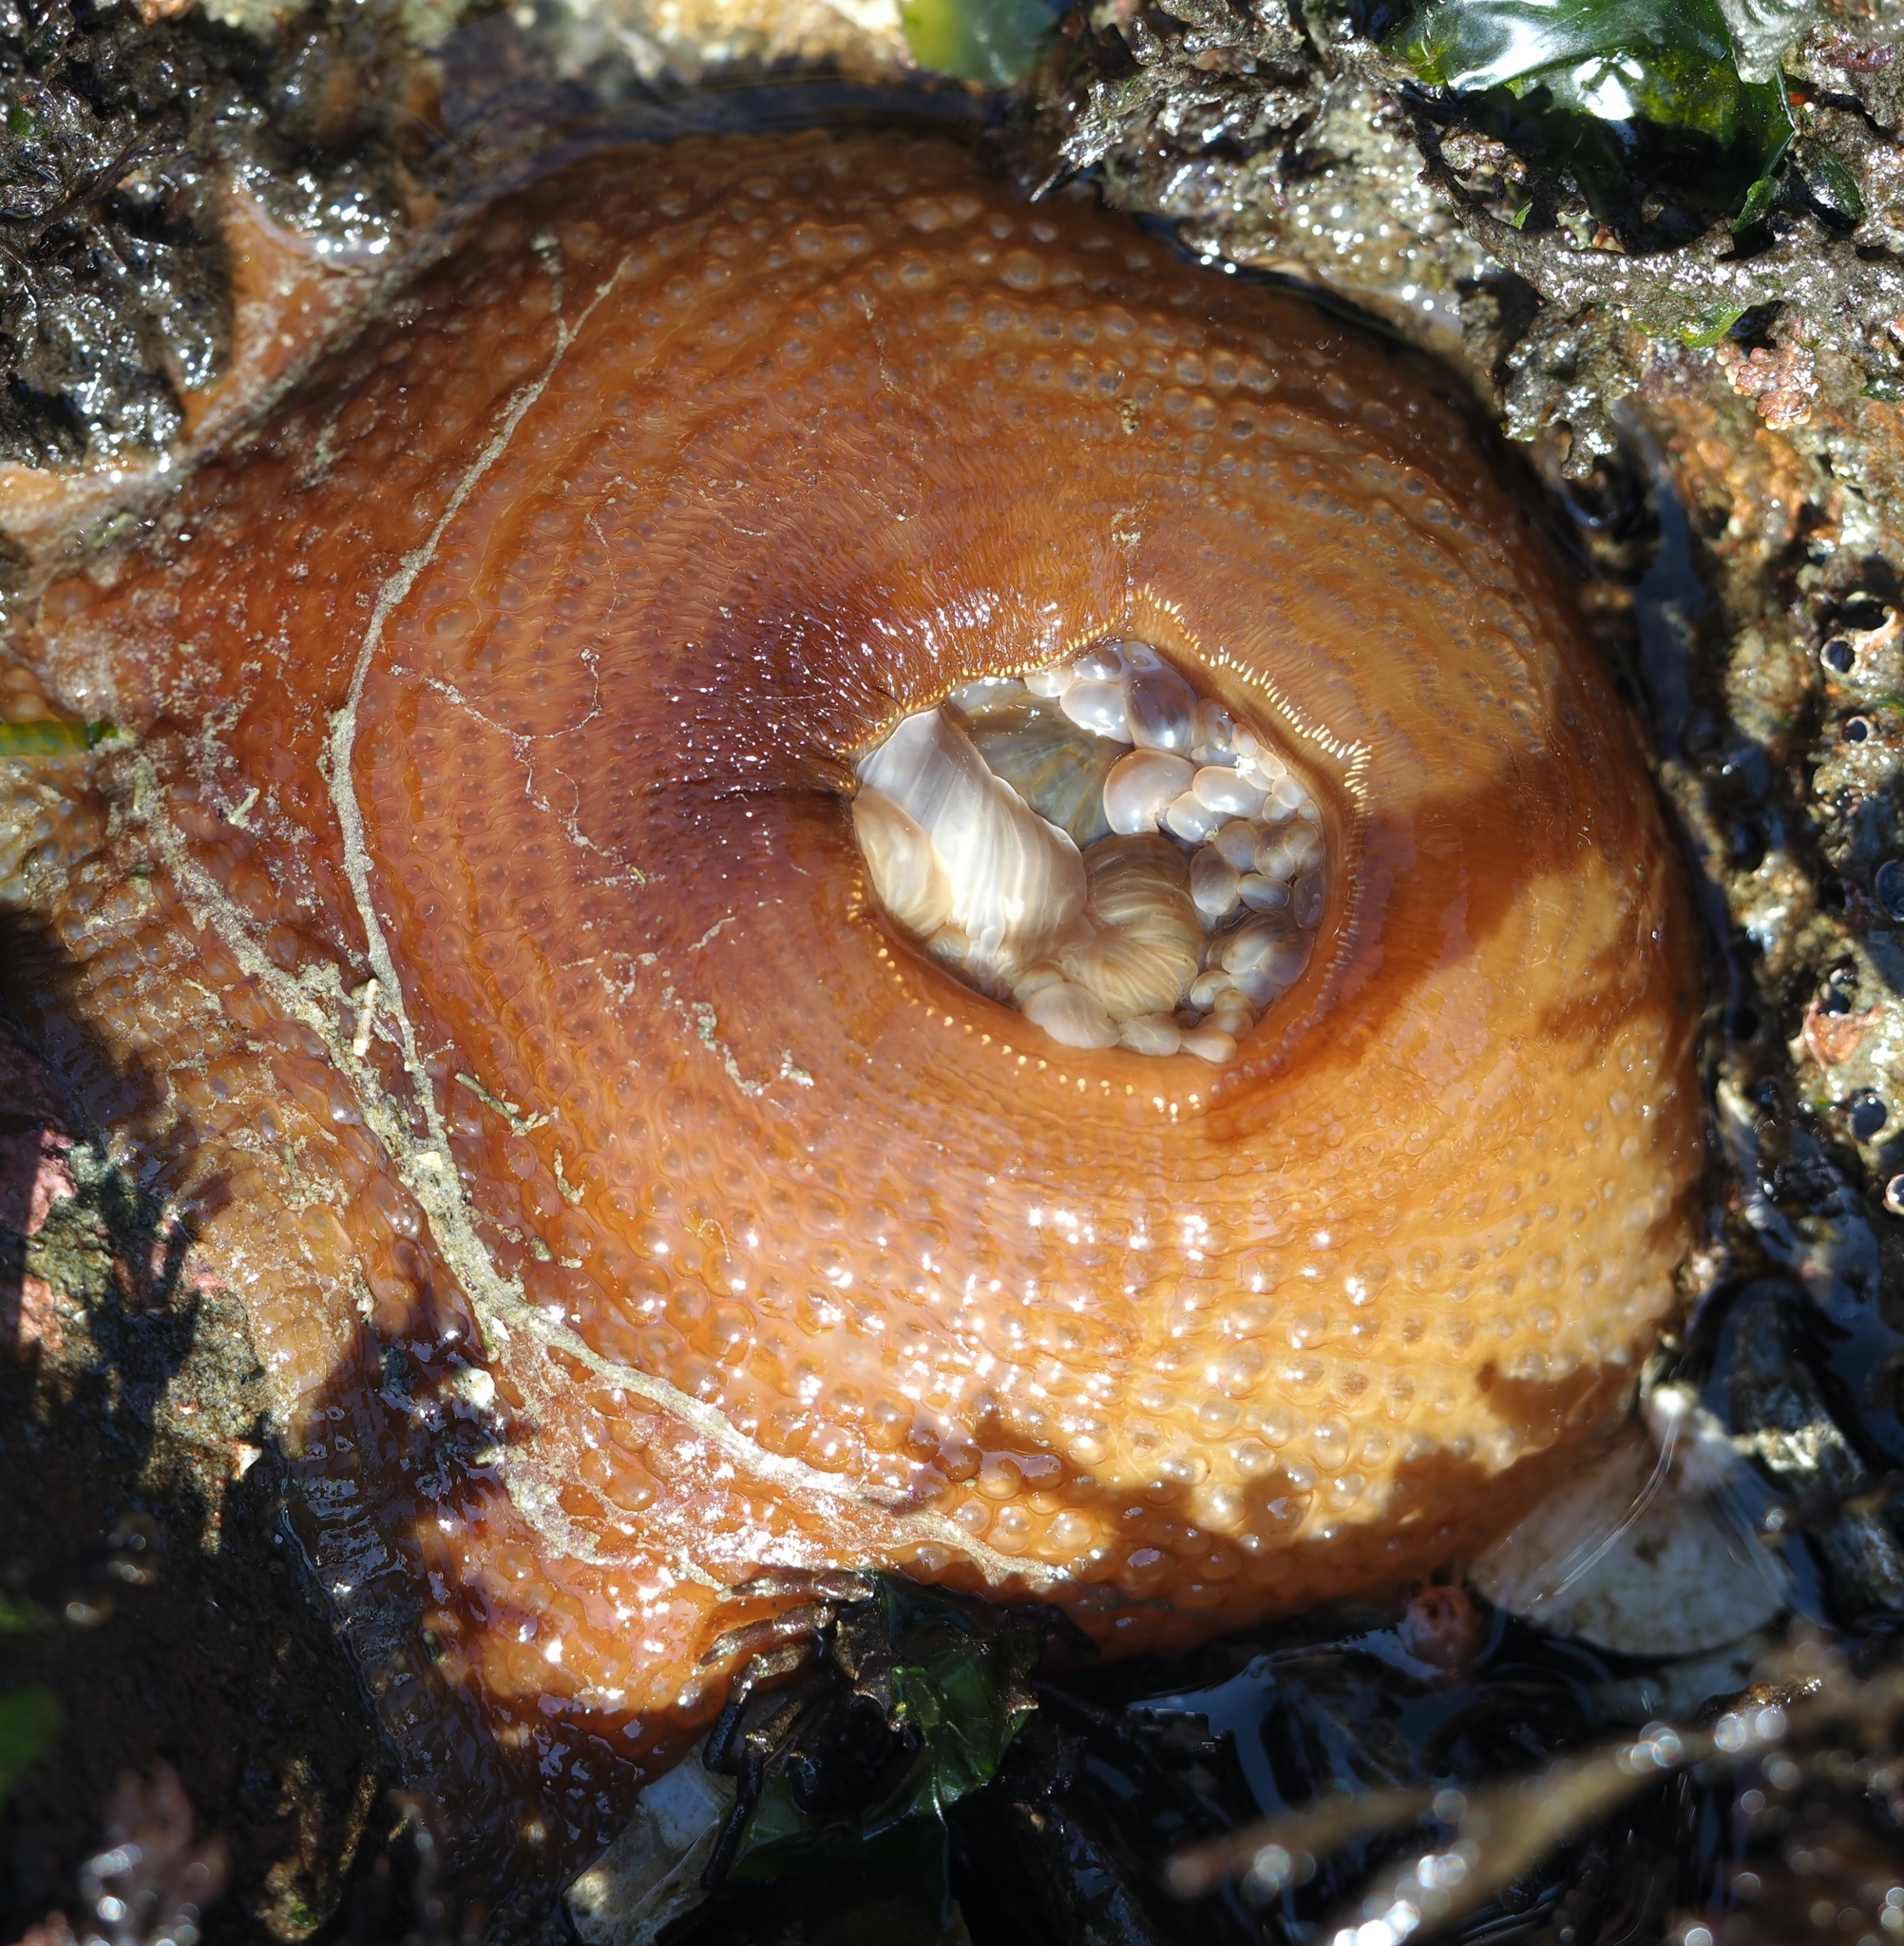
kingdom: Animalia
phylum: Cnidaria
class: Anthozoa
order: Actiniaria
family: Actiniidae
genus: Urticina
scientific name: Urticina grebelnyi
